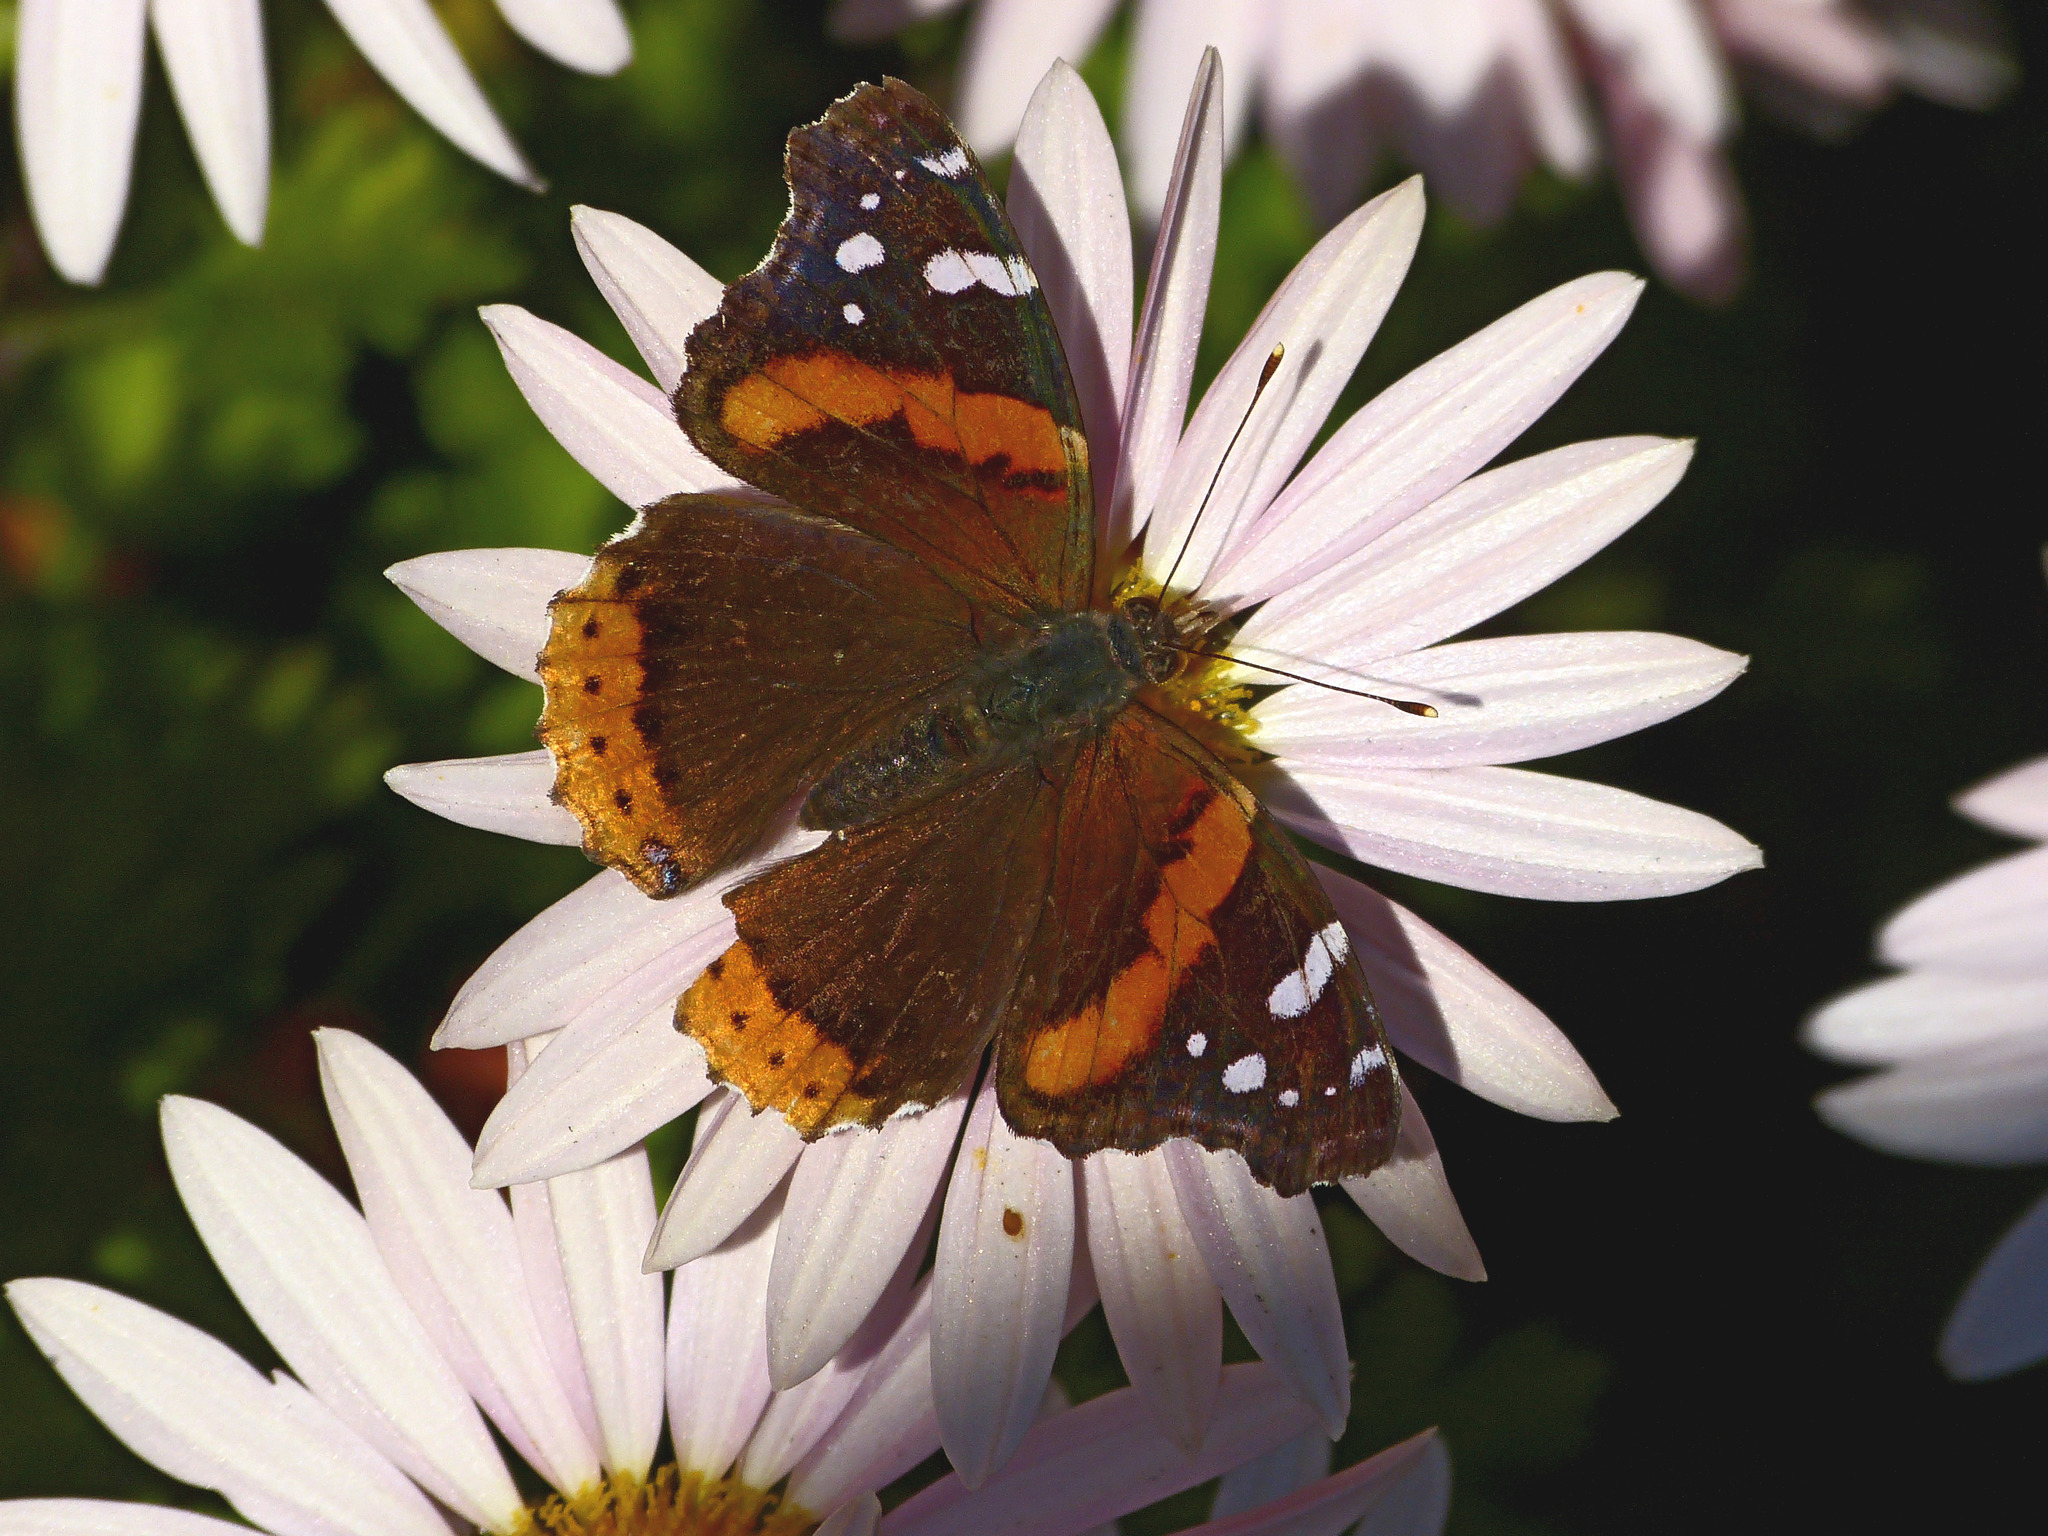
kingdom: Animalia
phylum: Arthropoda
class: Insecta
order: Lepidoptera
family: Nymphalidae
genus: Vanessa
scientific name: Vanessa atalanta
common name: Red admiral
